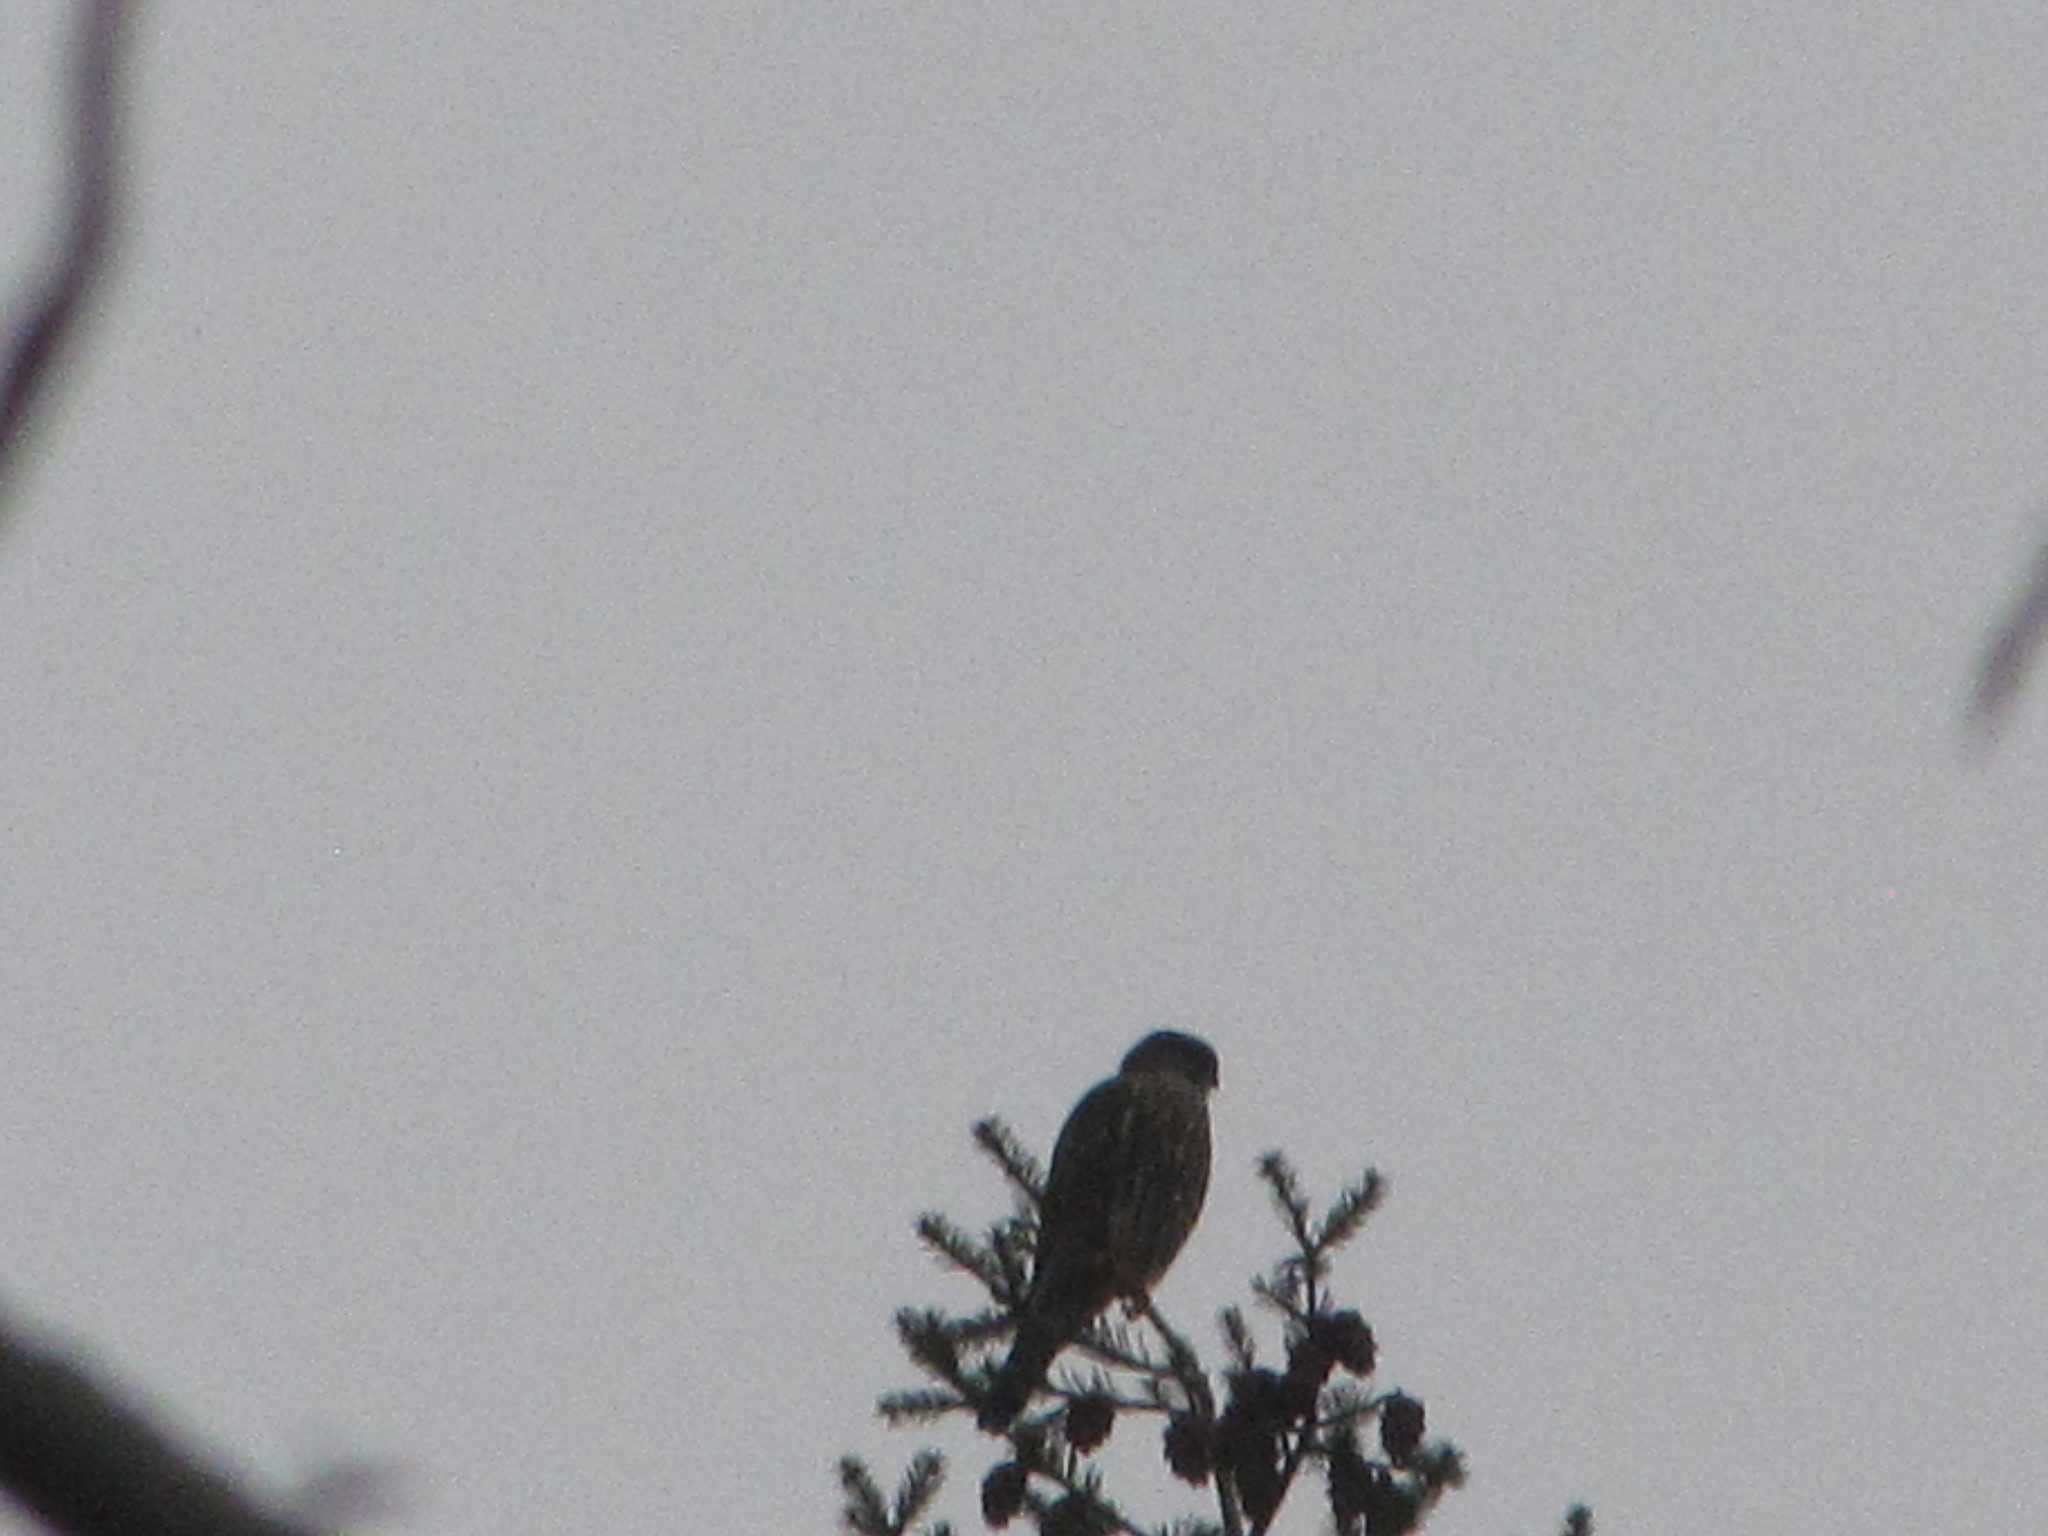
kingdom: Animalia
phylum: Chordata
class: Aves
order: Falconiformes
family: Falconidae
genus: Falco
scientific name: Falco columbarius
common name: Merlin
